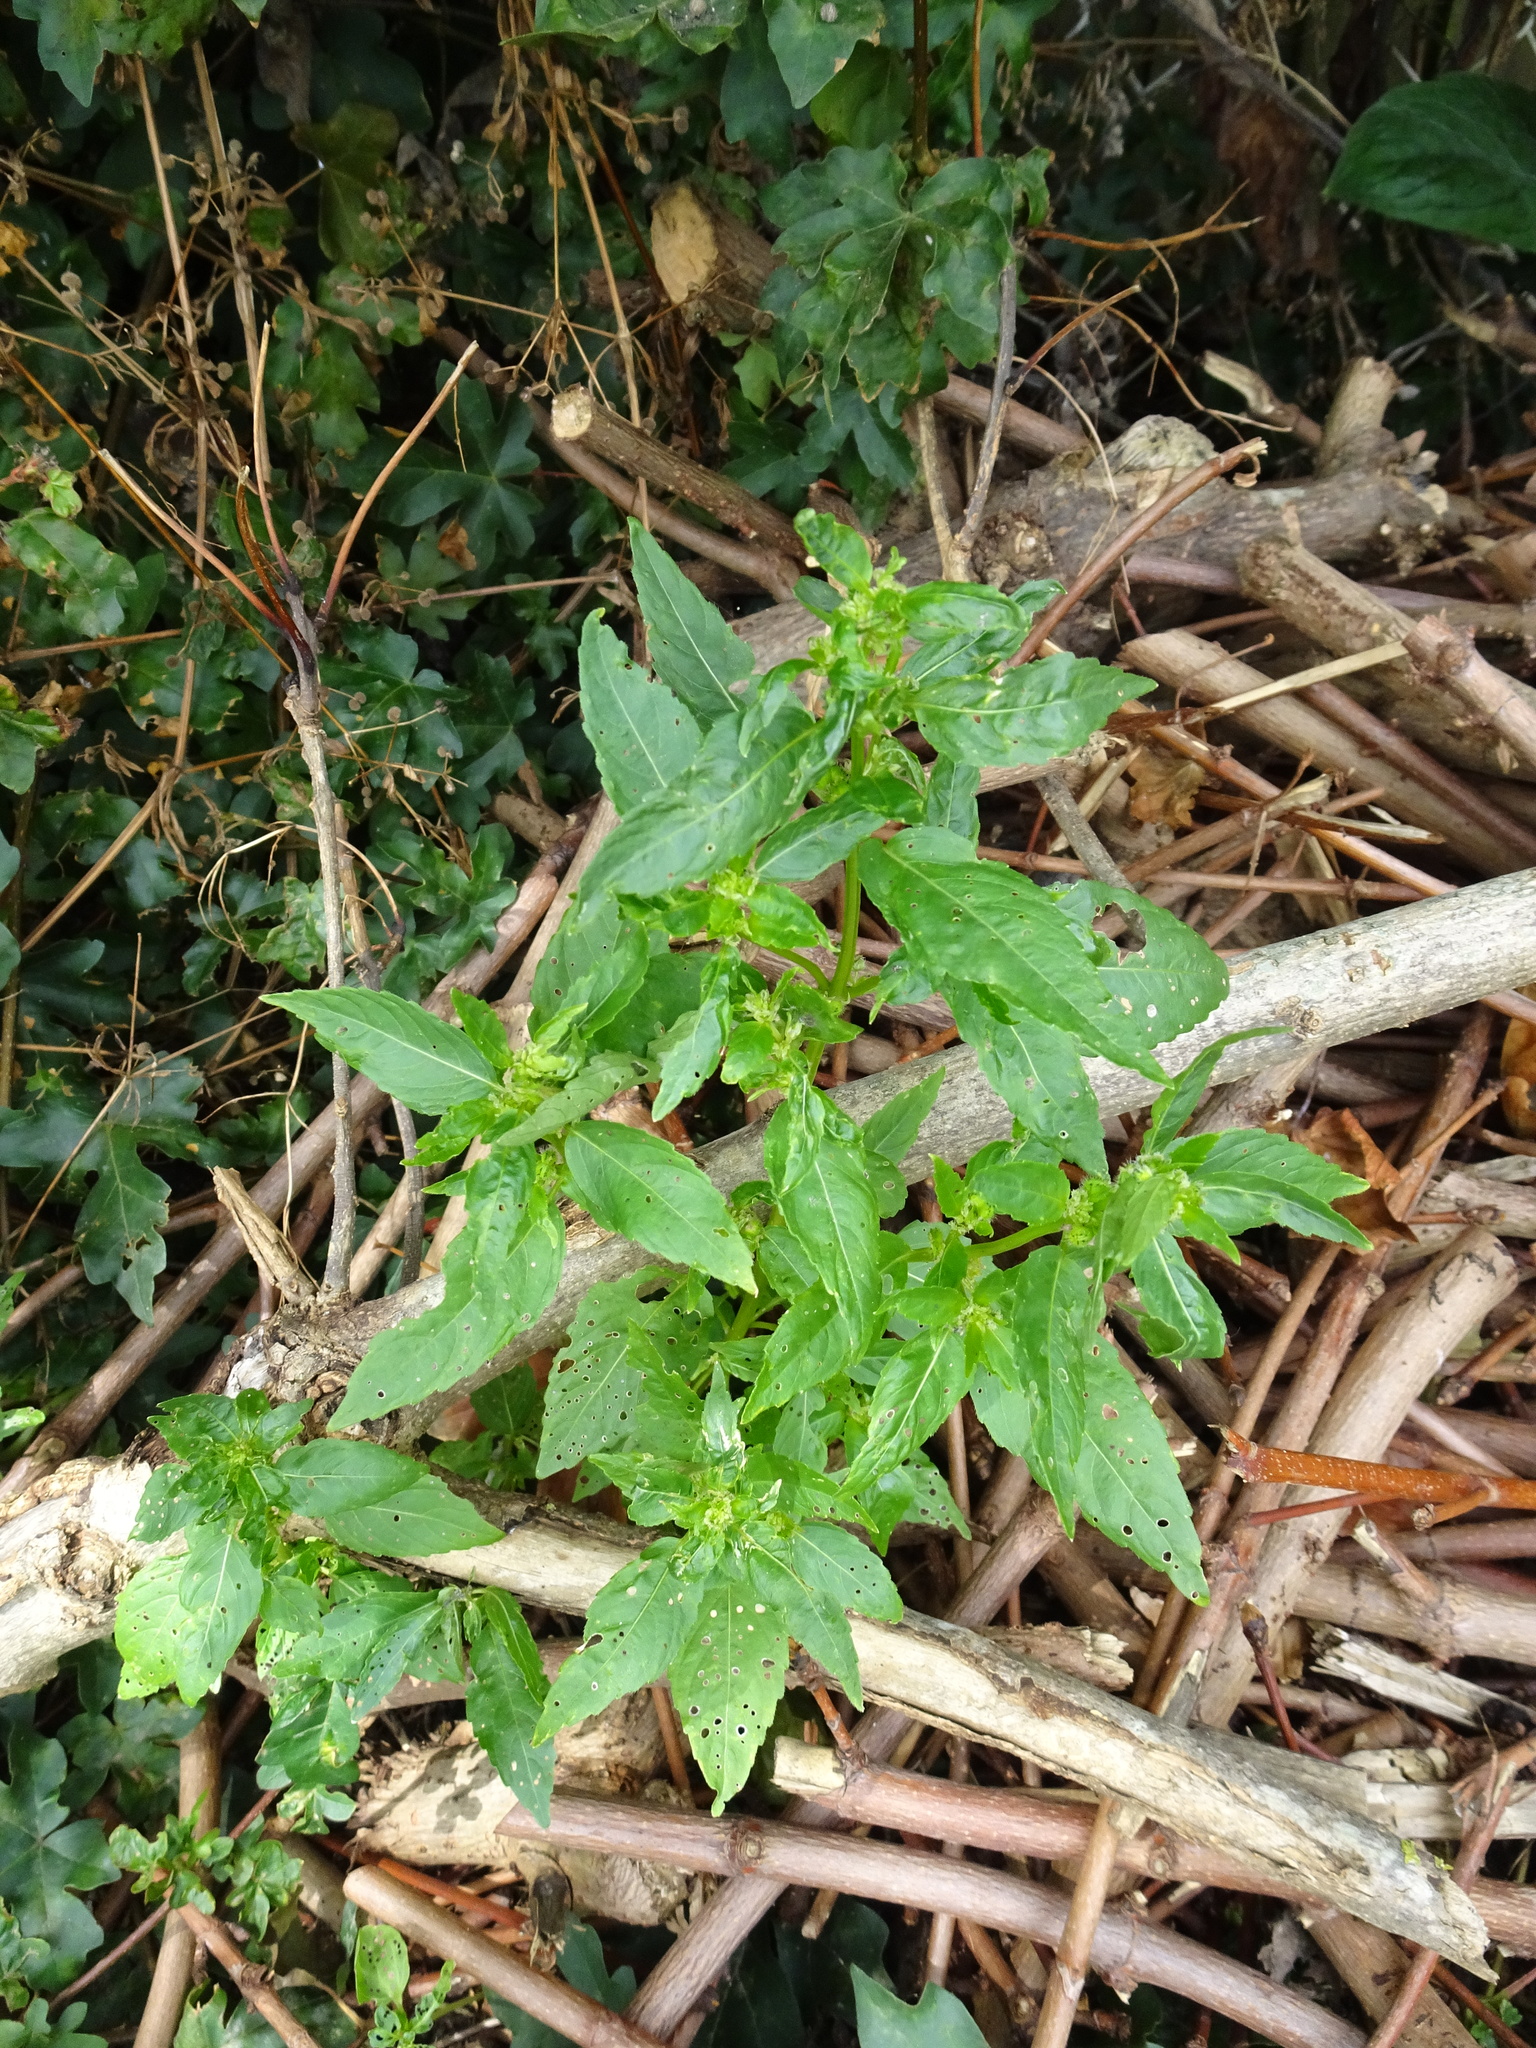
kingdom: Plantae
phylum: Tracheophyta
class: Magnoliopsida
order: Malpighiales
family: Euphorbiaceae
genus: Mercurialis
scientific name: Mercurialis annua
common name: Annual mercury
